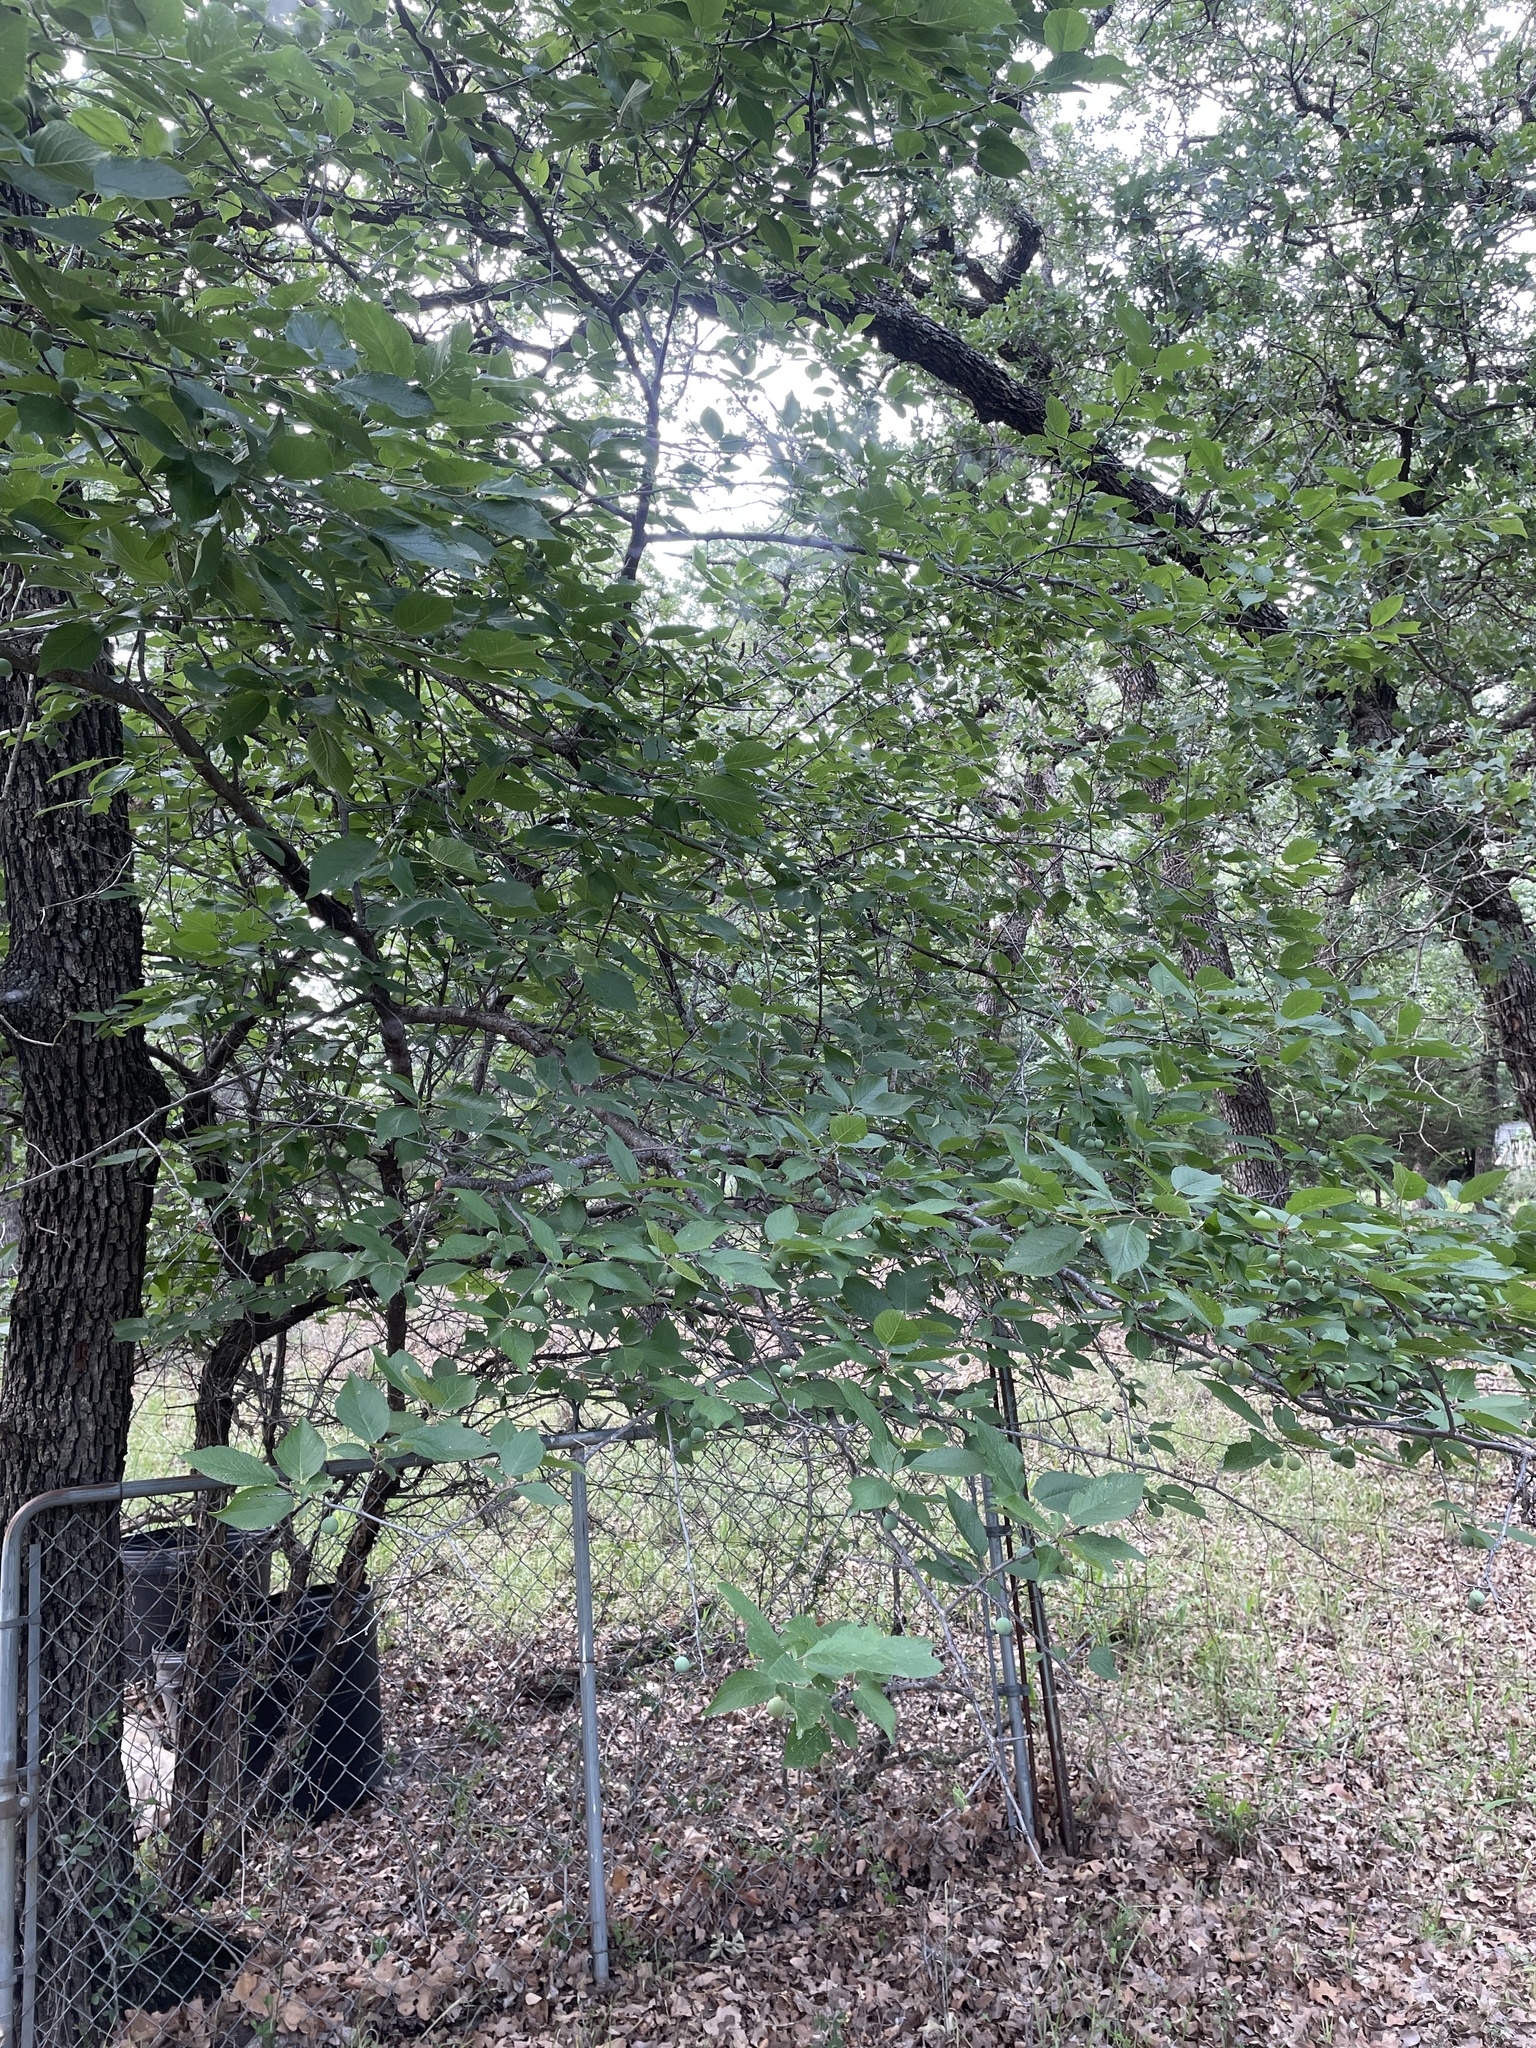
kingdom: Plantae
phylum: Tracheophyta
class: Magnoliopsida
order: Rosales
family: Rosaceae
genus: Prunus
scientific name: Prunus mexicana
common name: Mexican plum
